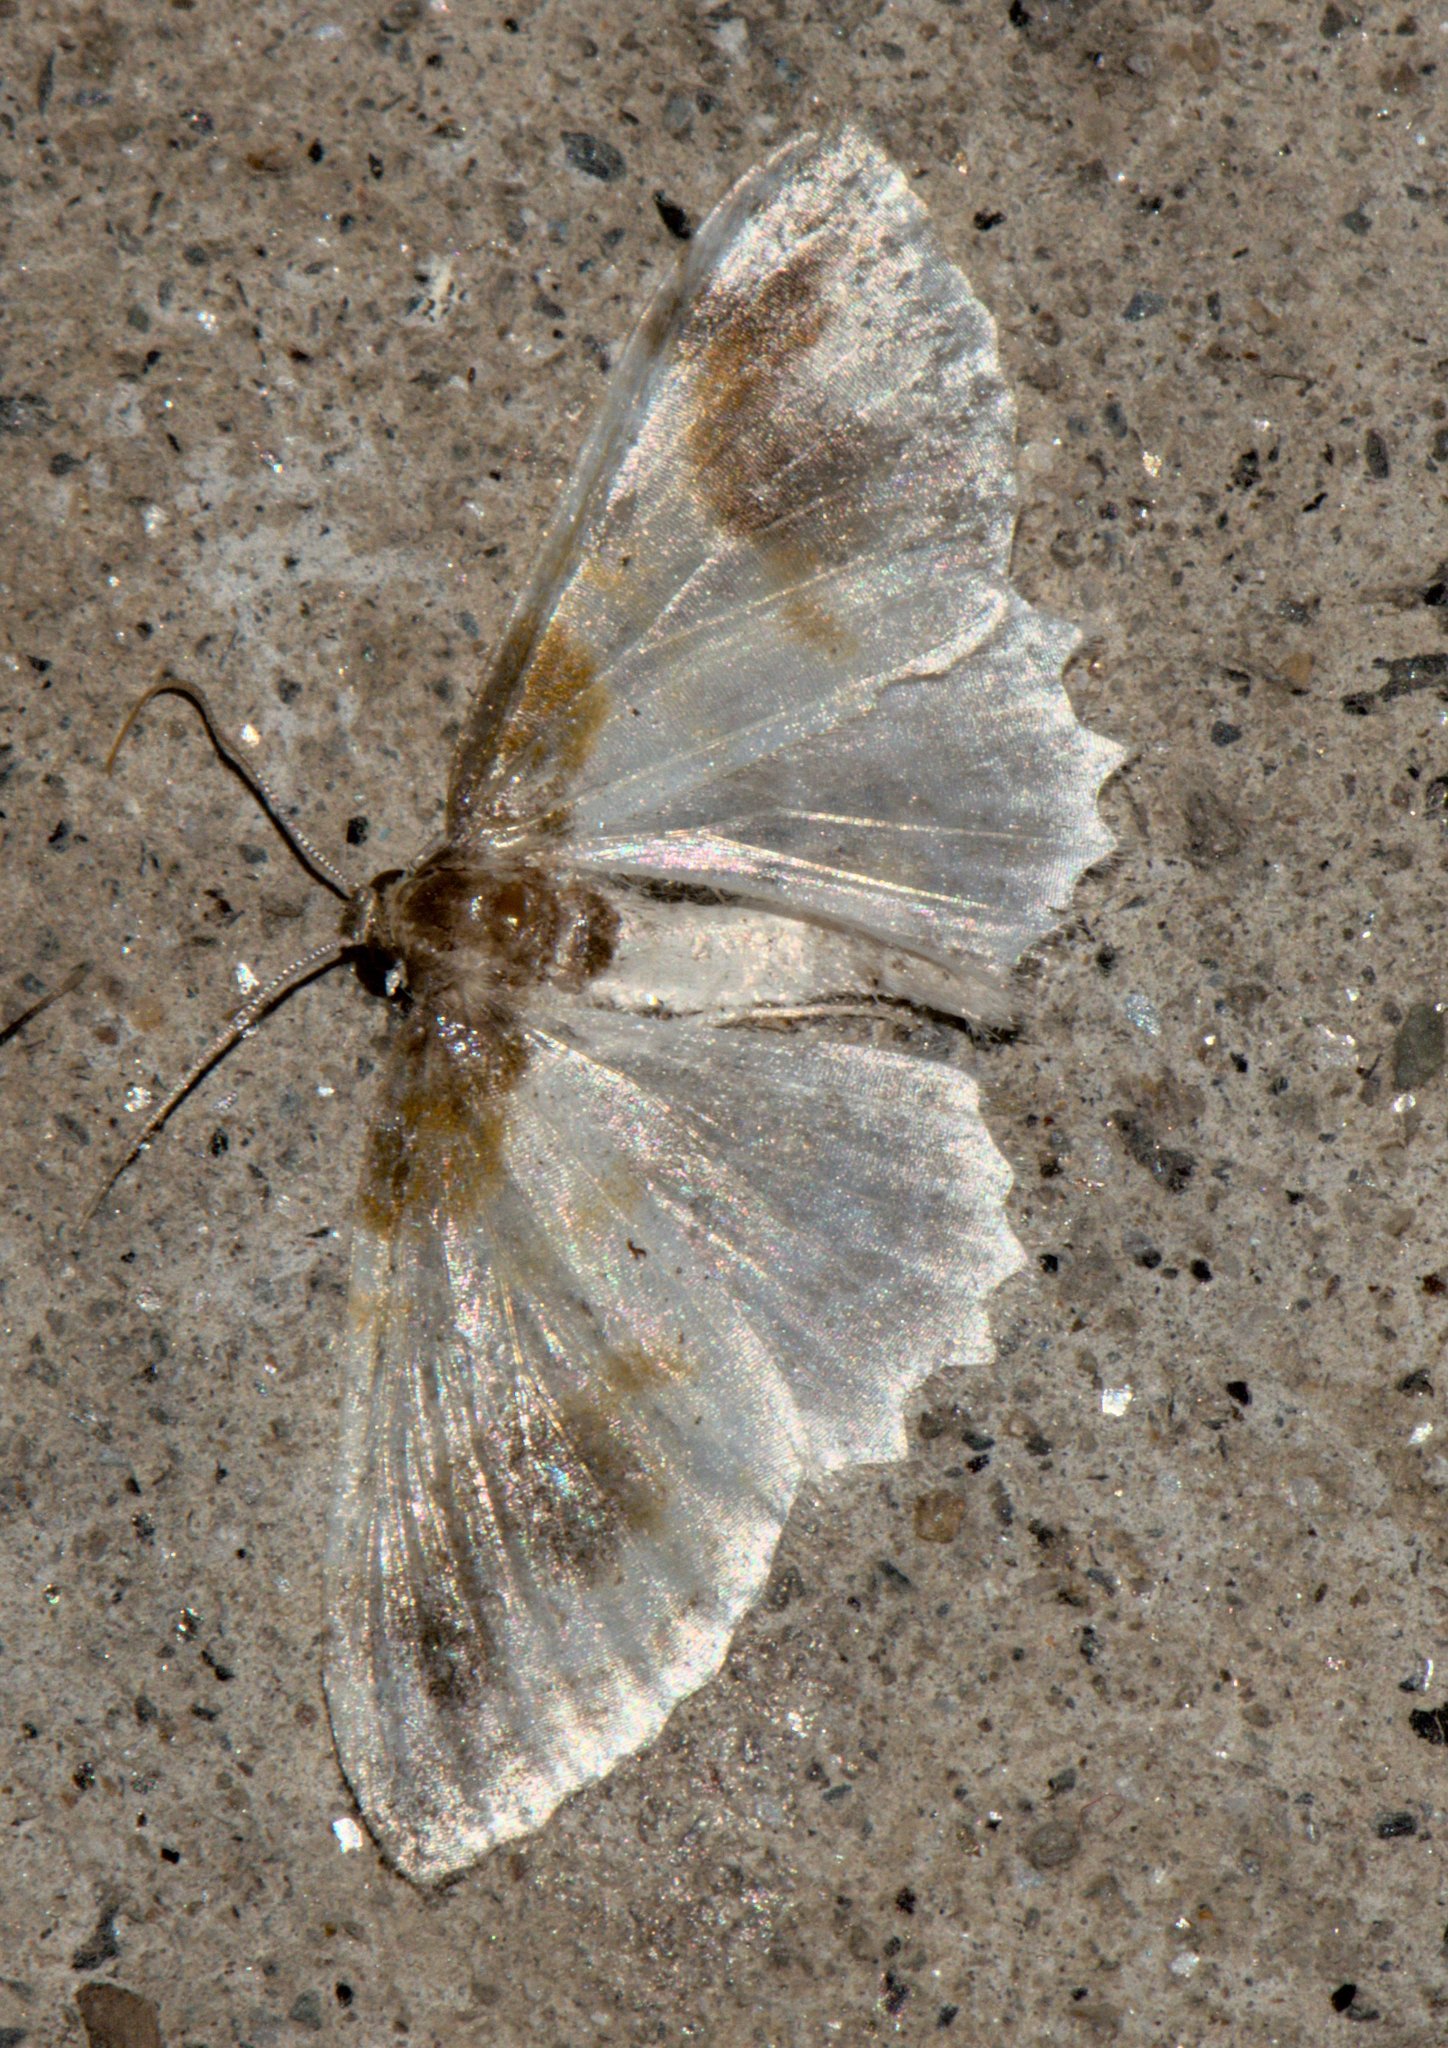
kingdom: Animalia
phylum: Arthropoda
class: Insecta
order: Lepidoptera
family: Geometridae
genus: Agnibesa
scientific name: Agnibesa pictaria
